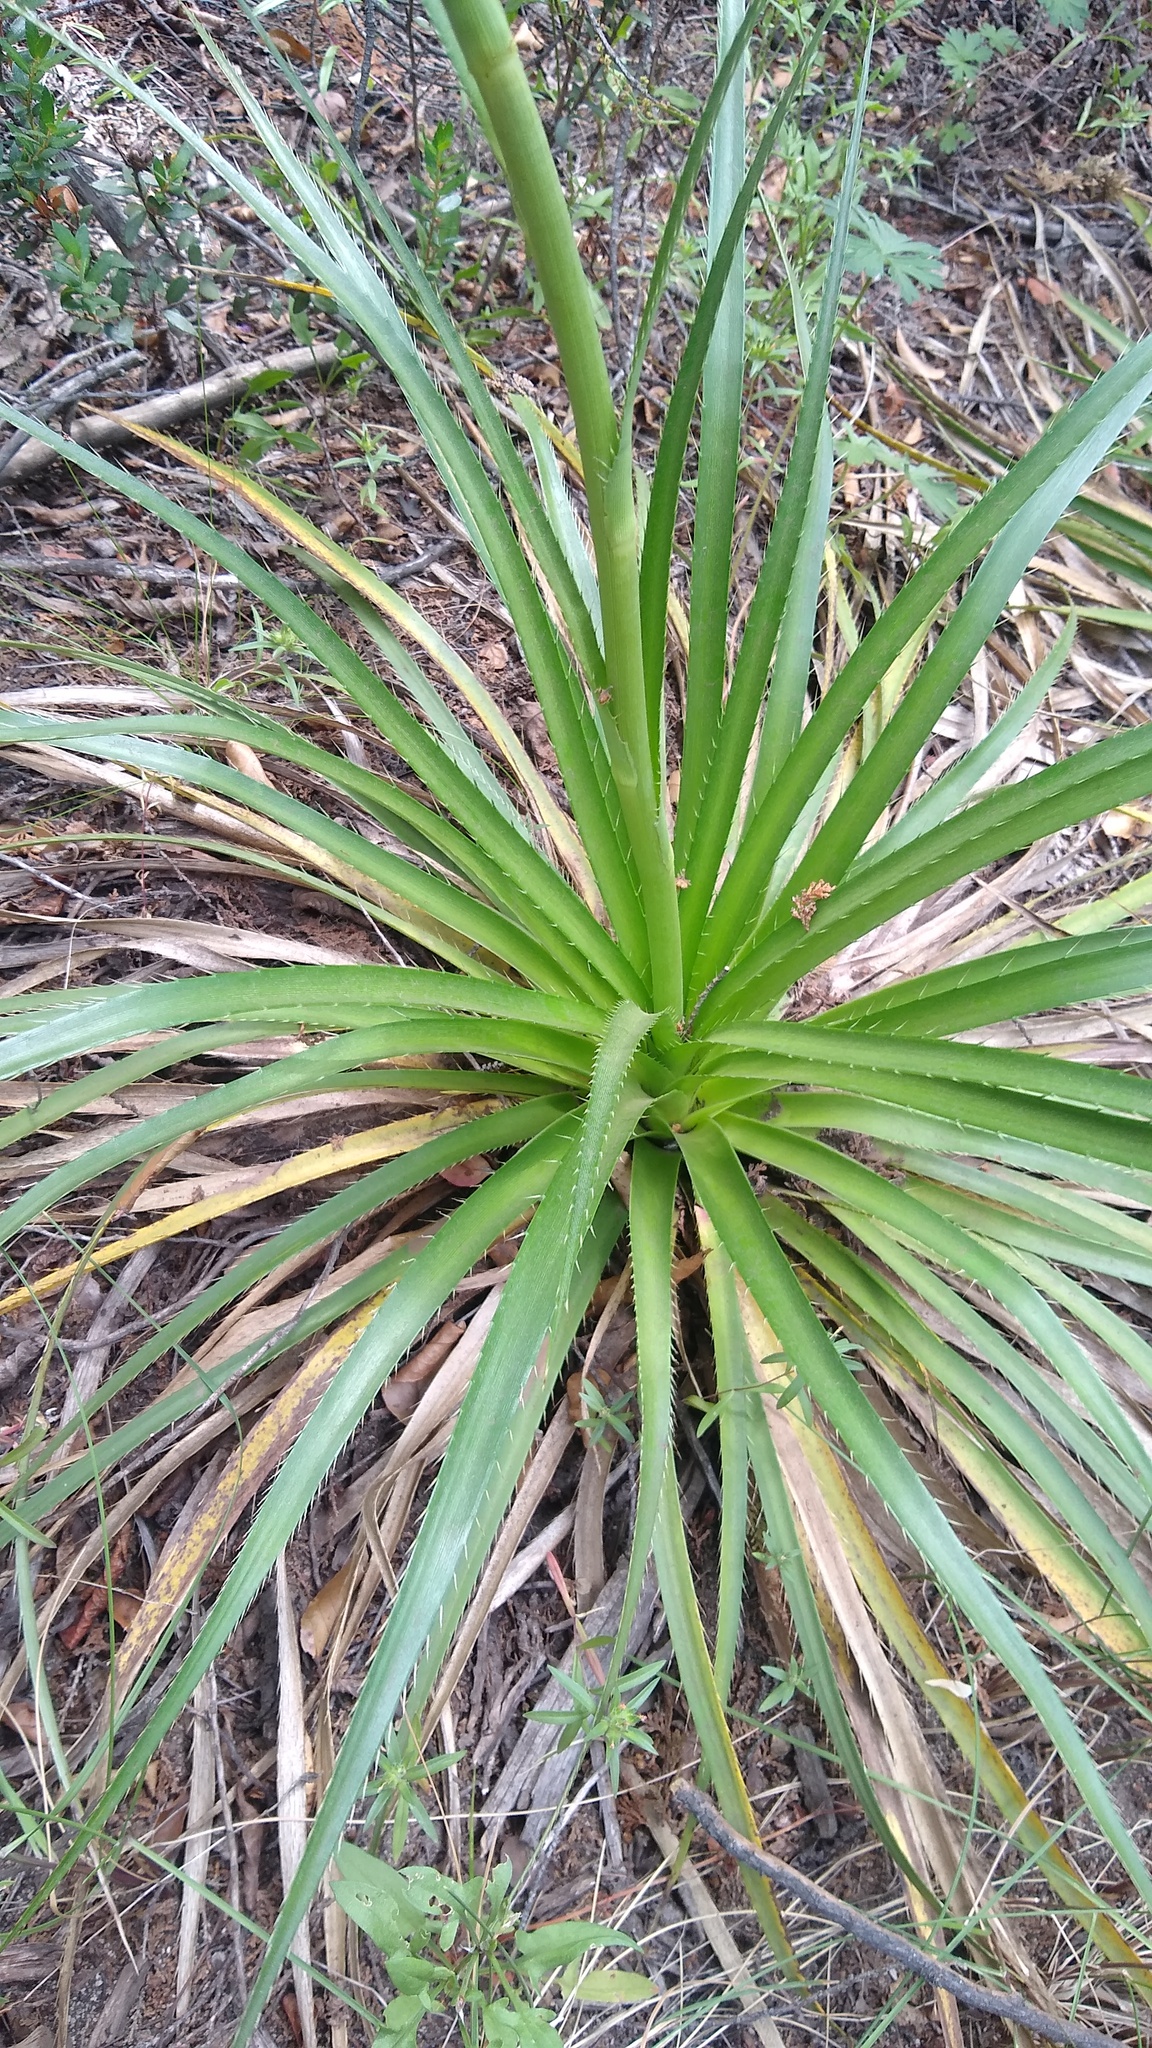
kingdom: Plantae
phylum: Tracheophyta
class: Magnoliopsida
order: Apiales
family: Apiaceae
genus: Eryngium
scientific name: Eryngium humboldtii
